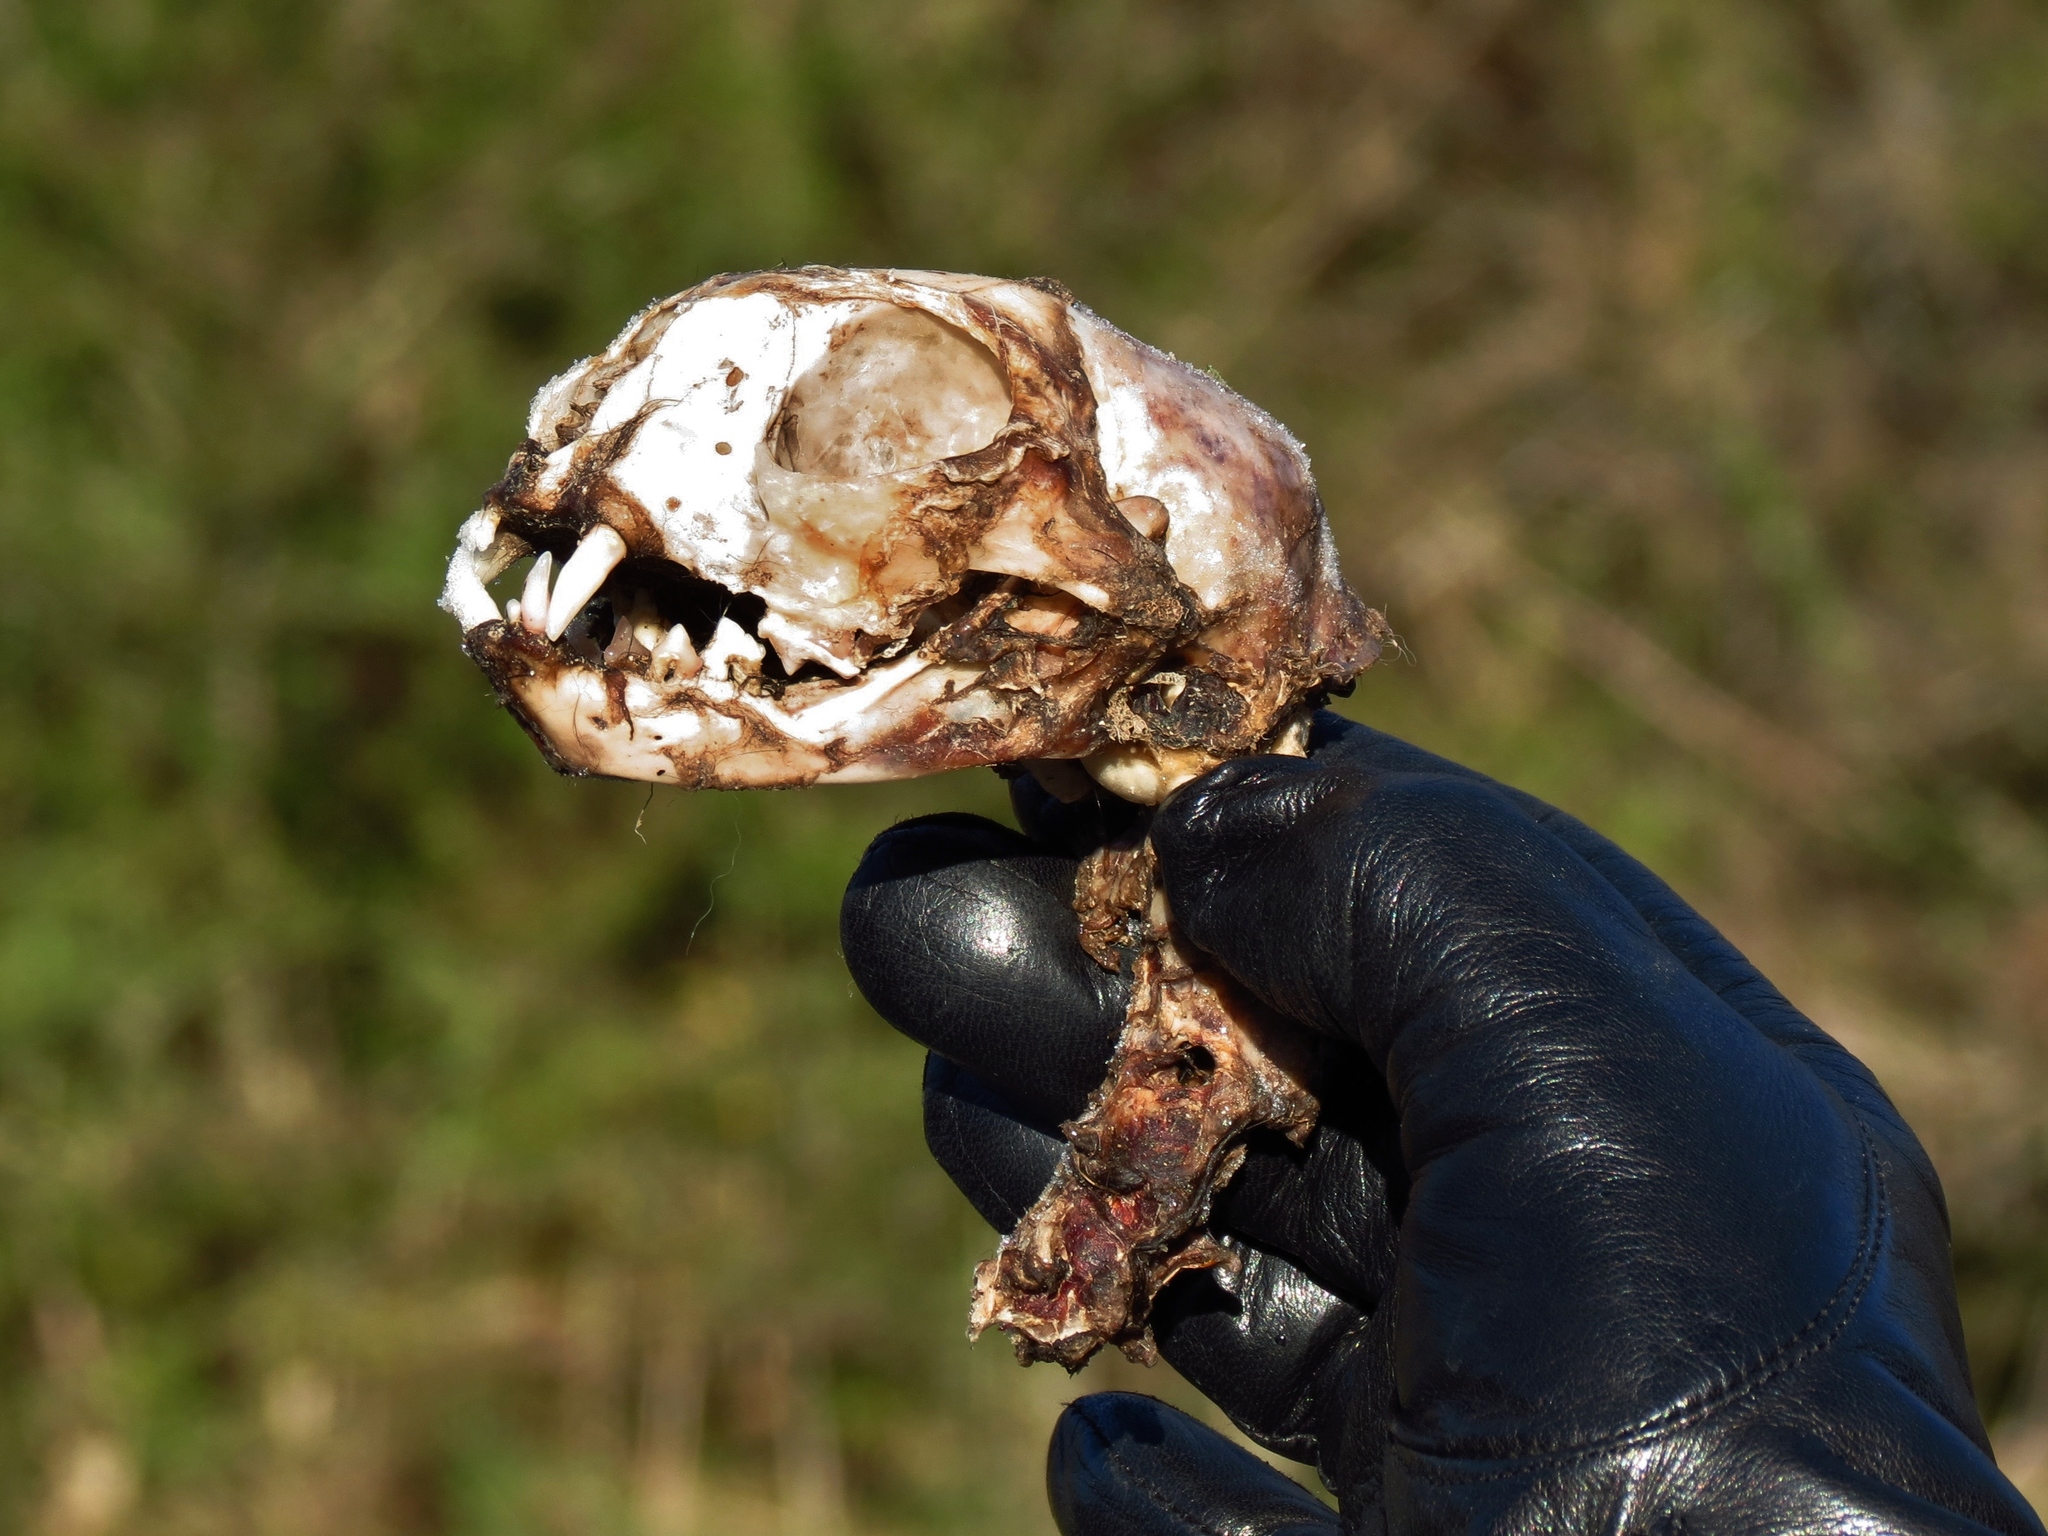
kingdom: Animalia
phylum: Chordata
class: Mammalia
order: Carnivora
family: Felidae
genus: Felis
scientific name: Felis catus
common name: Domestic cat
